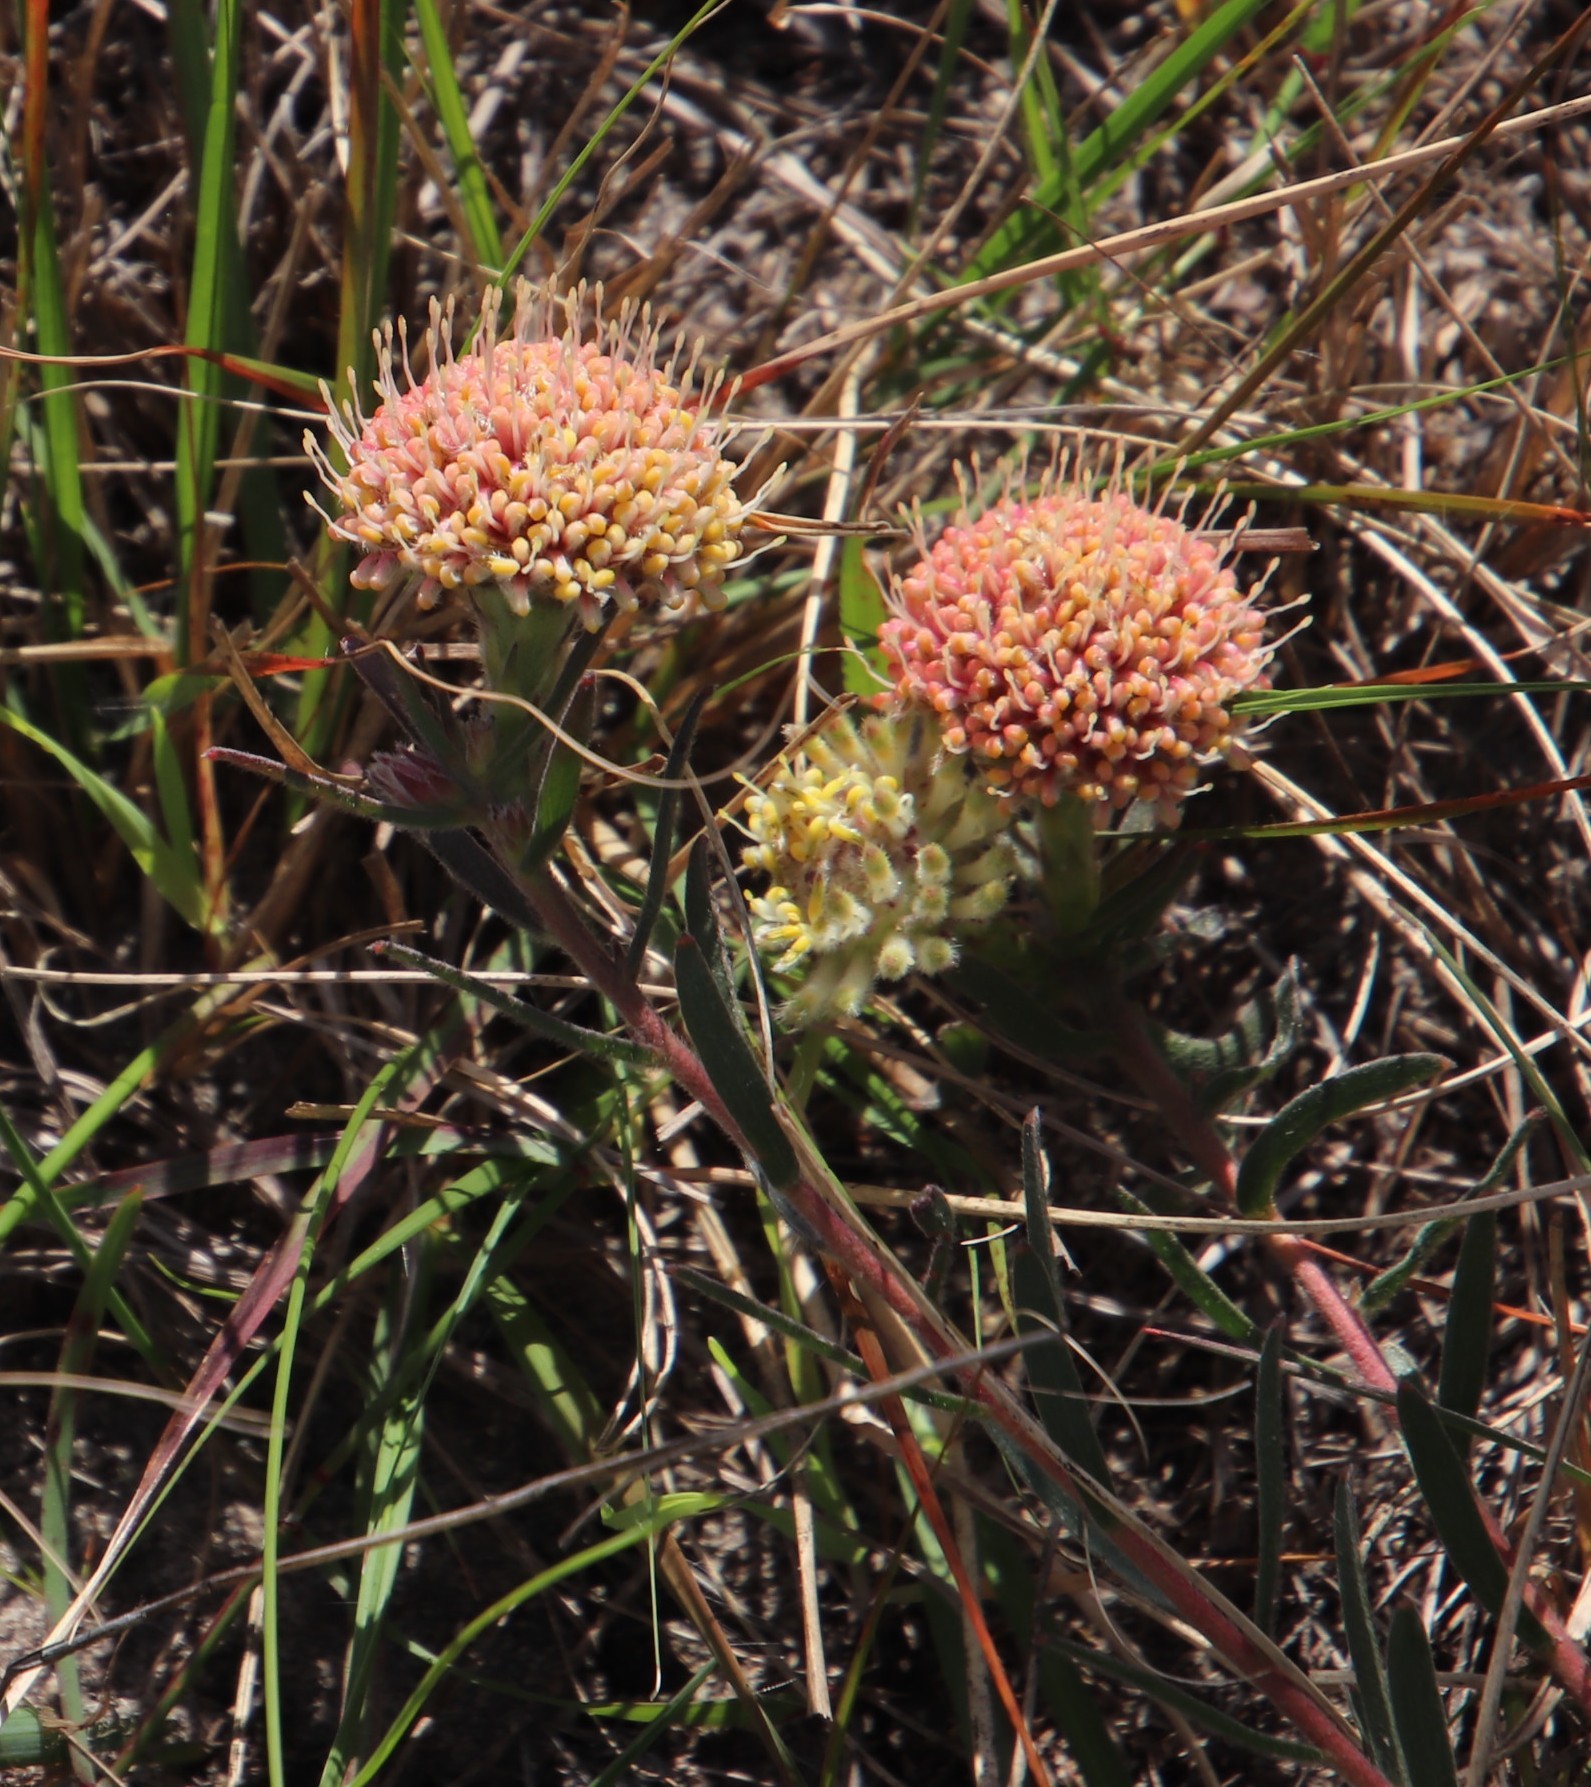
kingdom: Plantae
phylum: Tracheophyta
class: Magnoliopsida
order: Proteales
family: Proteaceae
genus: Leucospermum
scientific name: Leucospermum pedunculatum
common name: White-trailing pincushion
